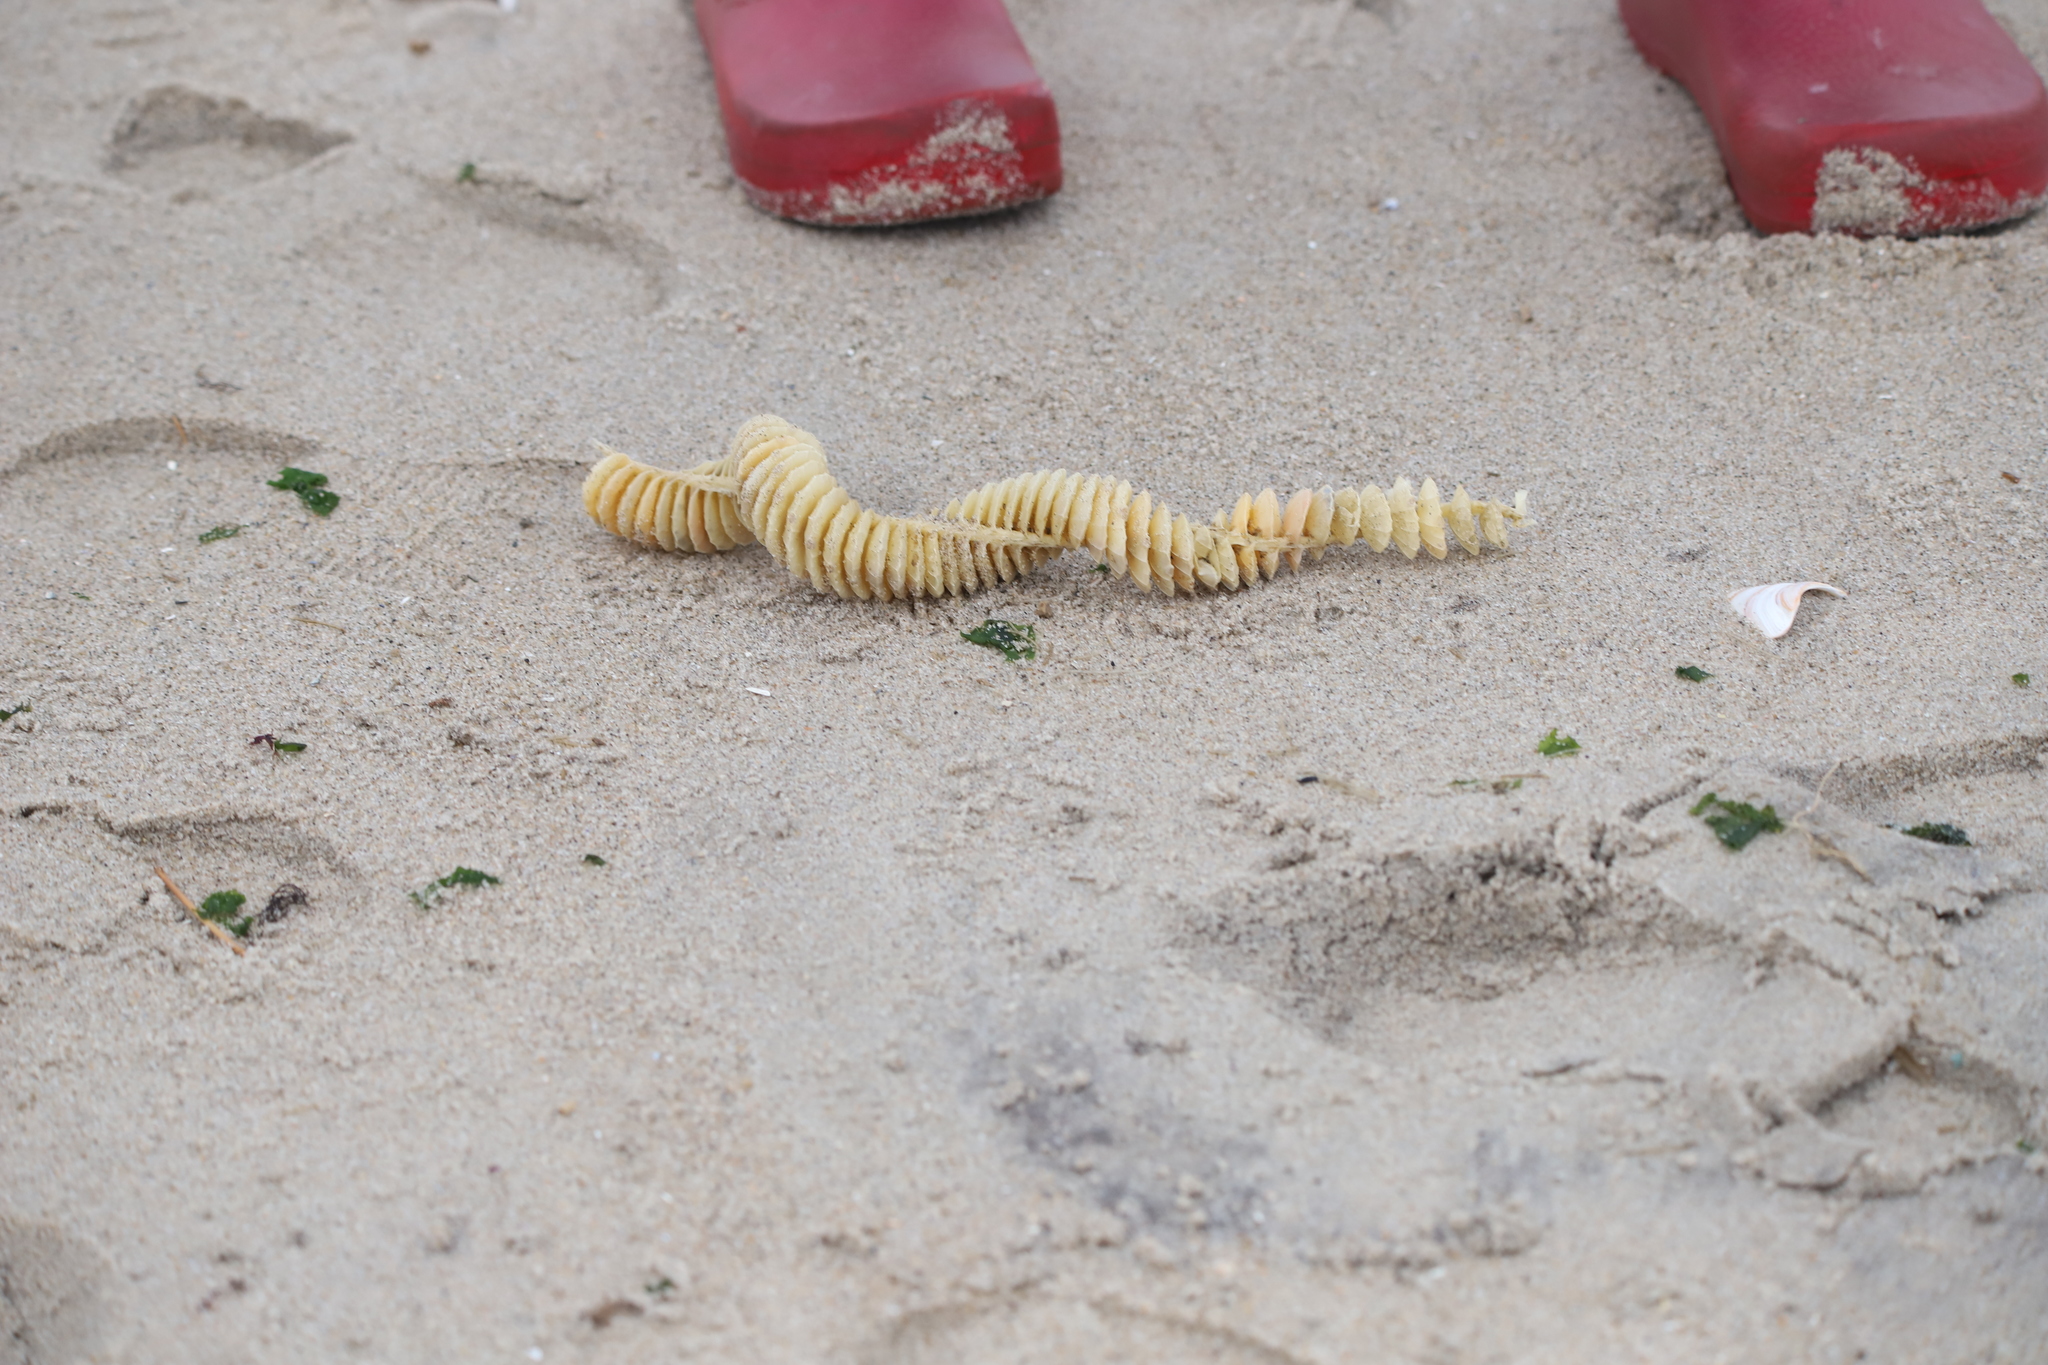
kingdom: Animalia
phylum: Mollusca
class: Gastropoda
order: Neogastropoda
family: Busyconidae
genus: Busycotypus
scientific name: Busycotypus canaliculatus
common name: Channeled whelk
